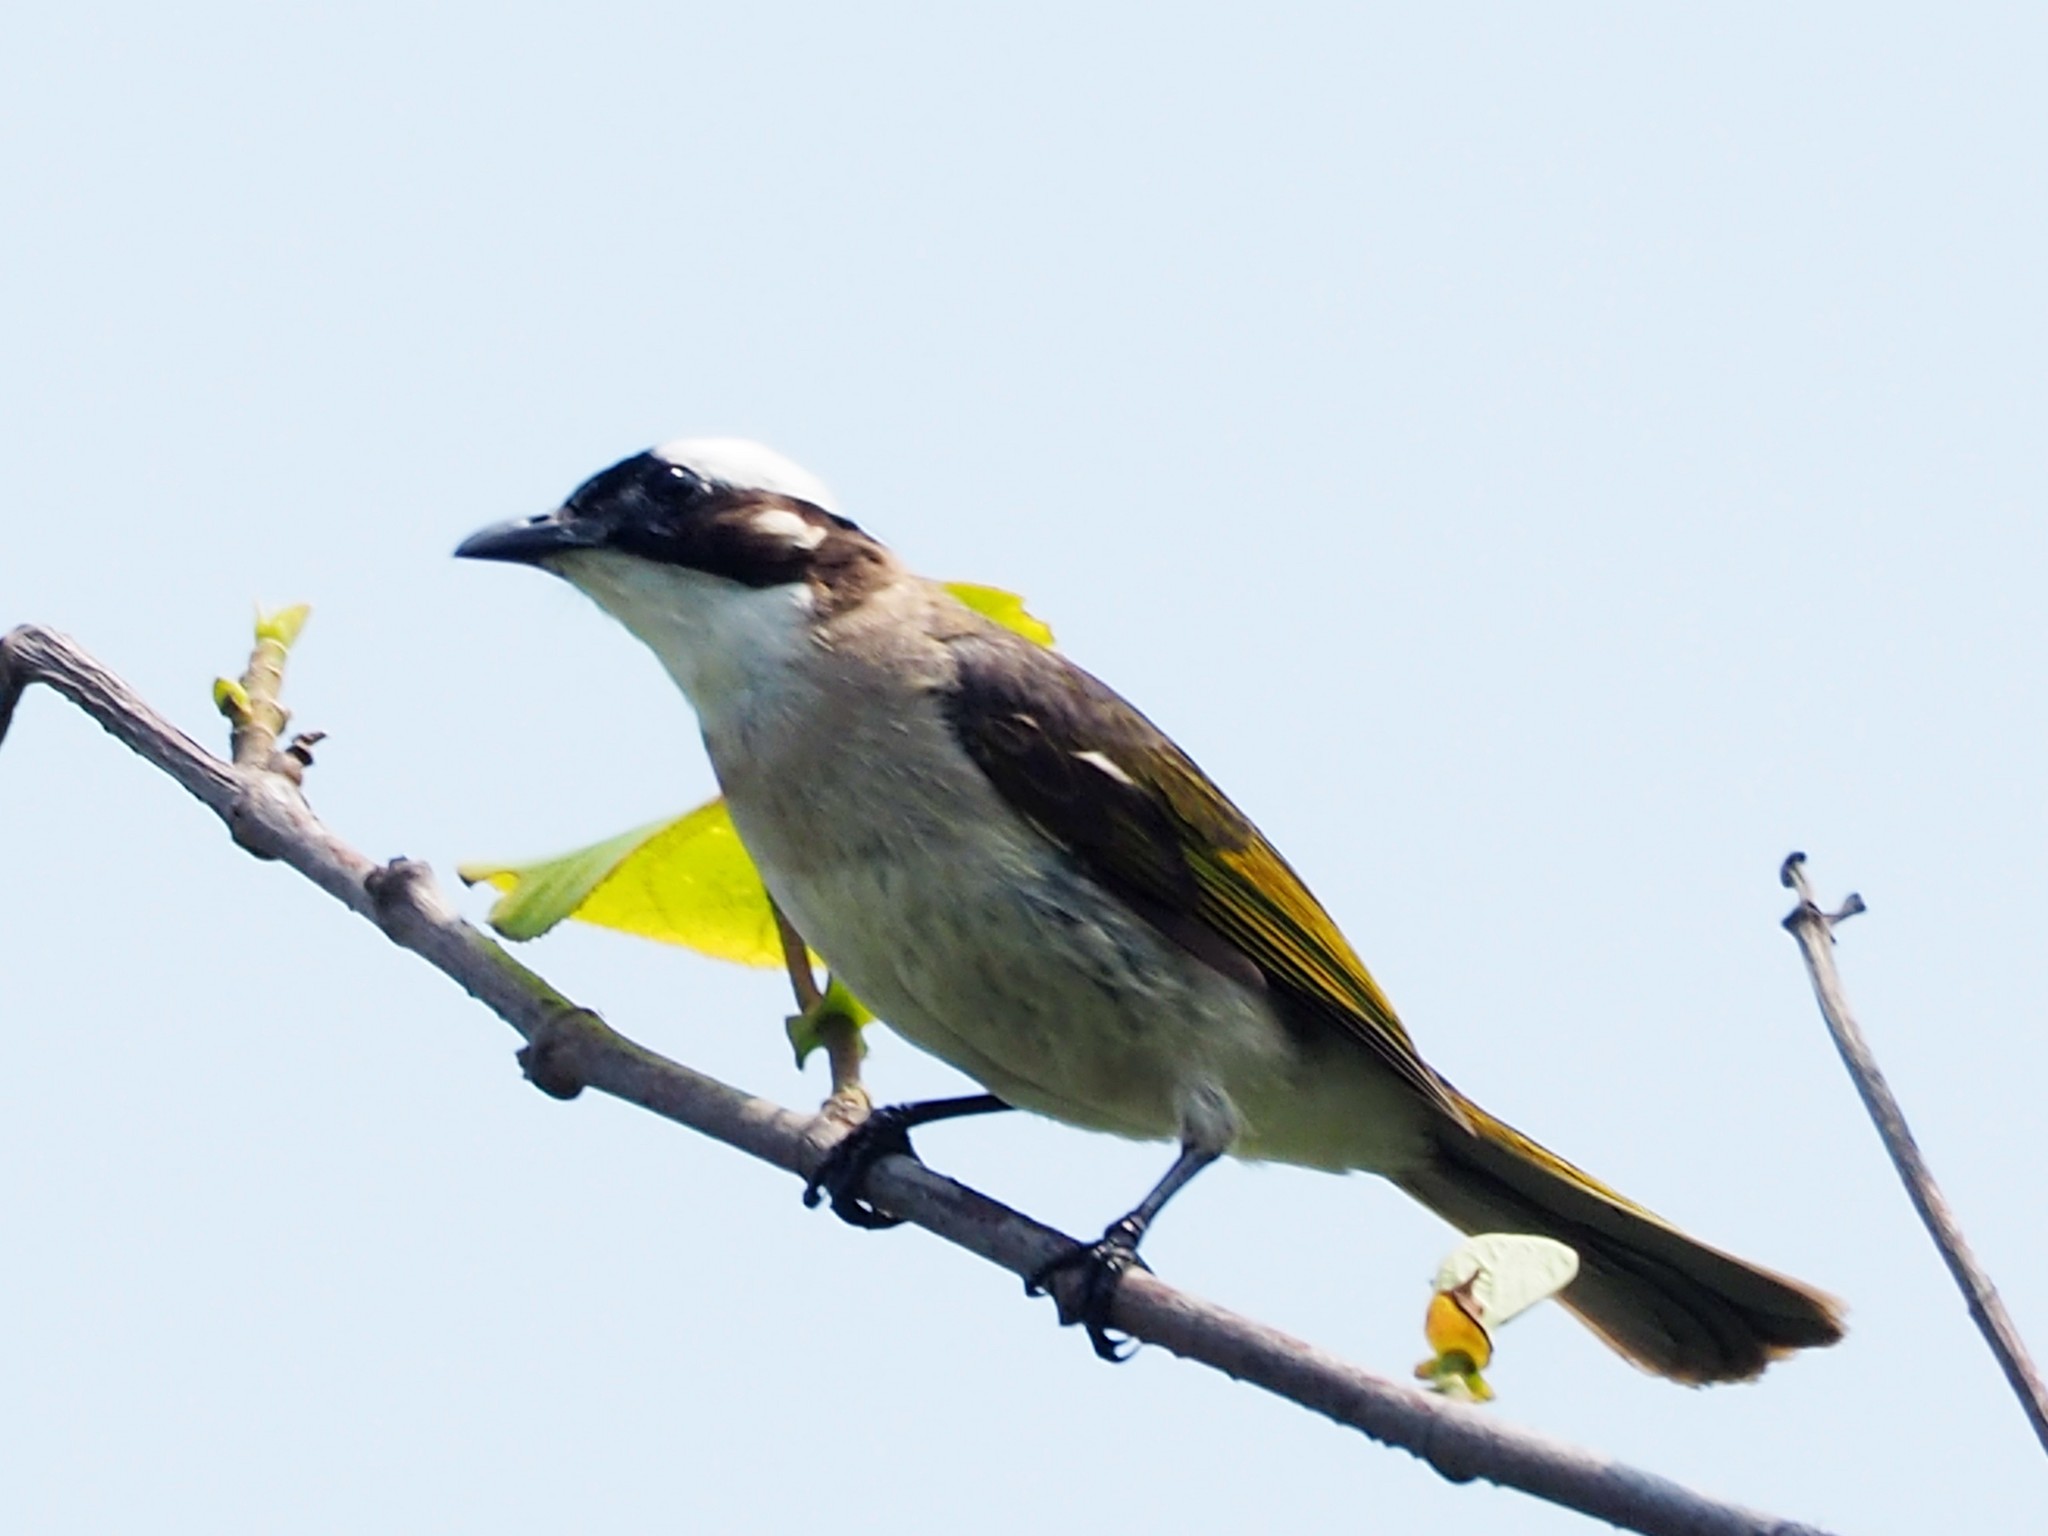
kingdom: Animalia
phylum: Chordata
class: Aves
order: Passeriformes
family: Pycnonotidae
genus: Pycnonotus
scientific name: Pycnonotus sinensis
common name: Light-vented bulbul
